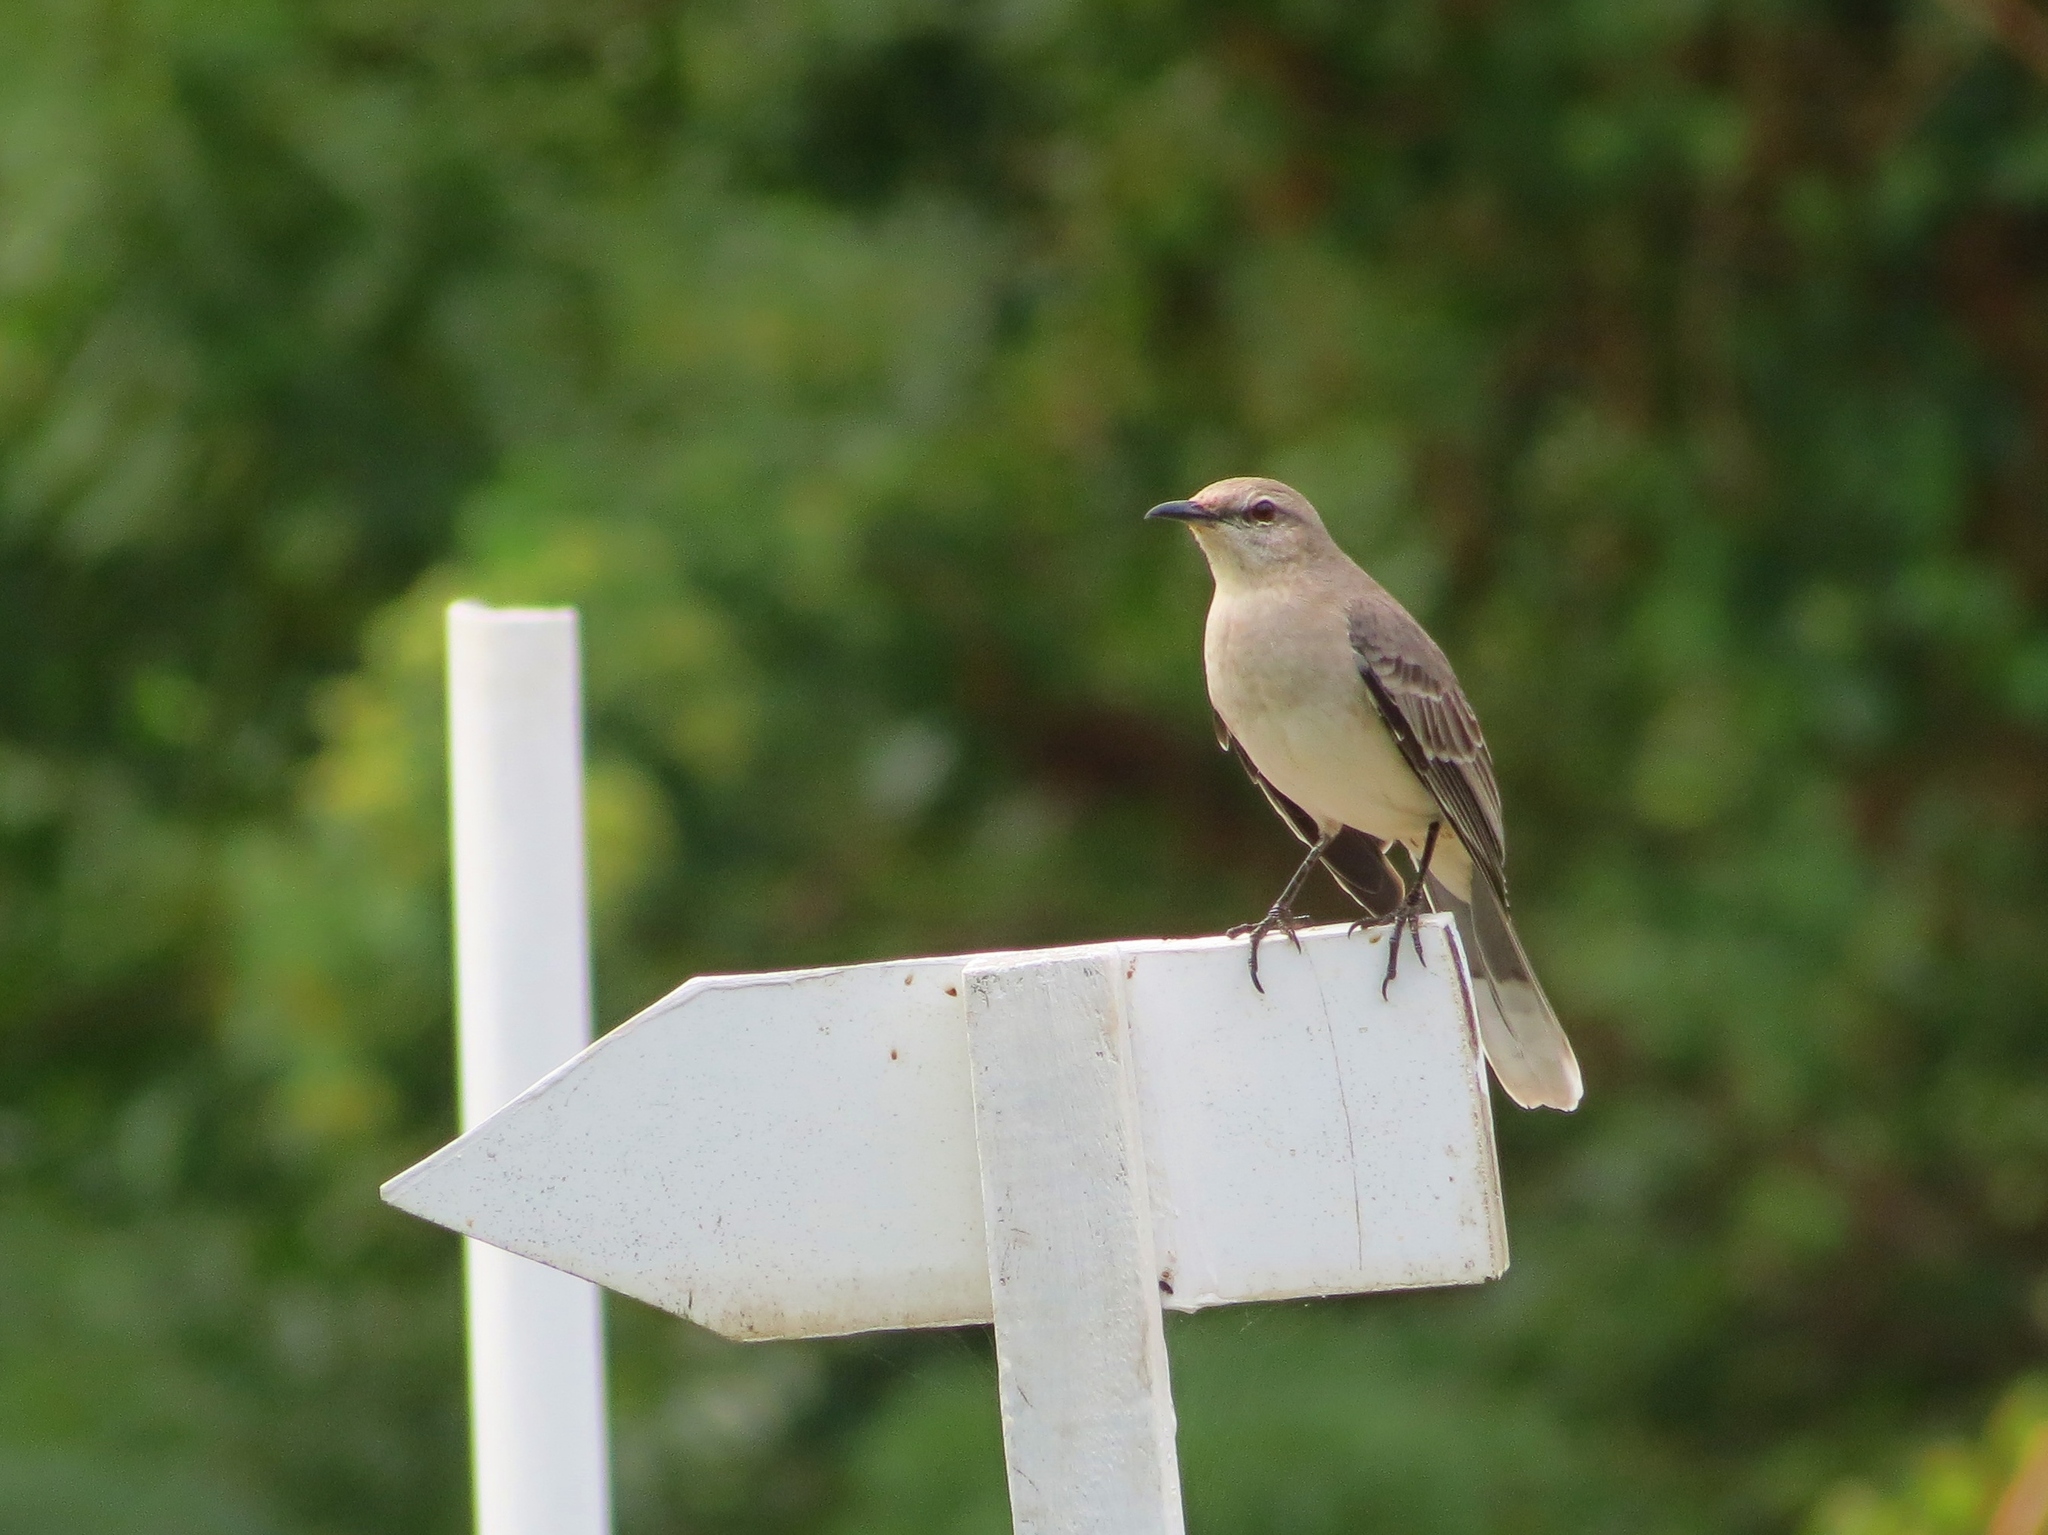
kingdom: Animalia
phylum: Chordata
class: Aves
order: Passeriformes
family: Mimidae
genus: Mimus
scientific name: Mimus gilvus
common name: Tropical mockingbird
